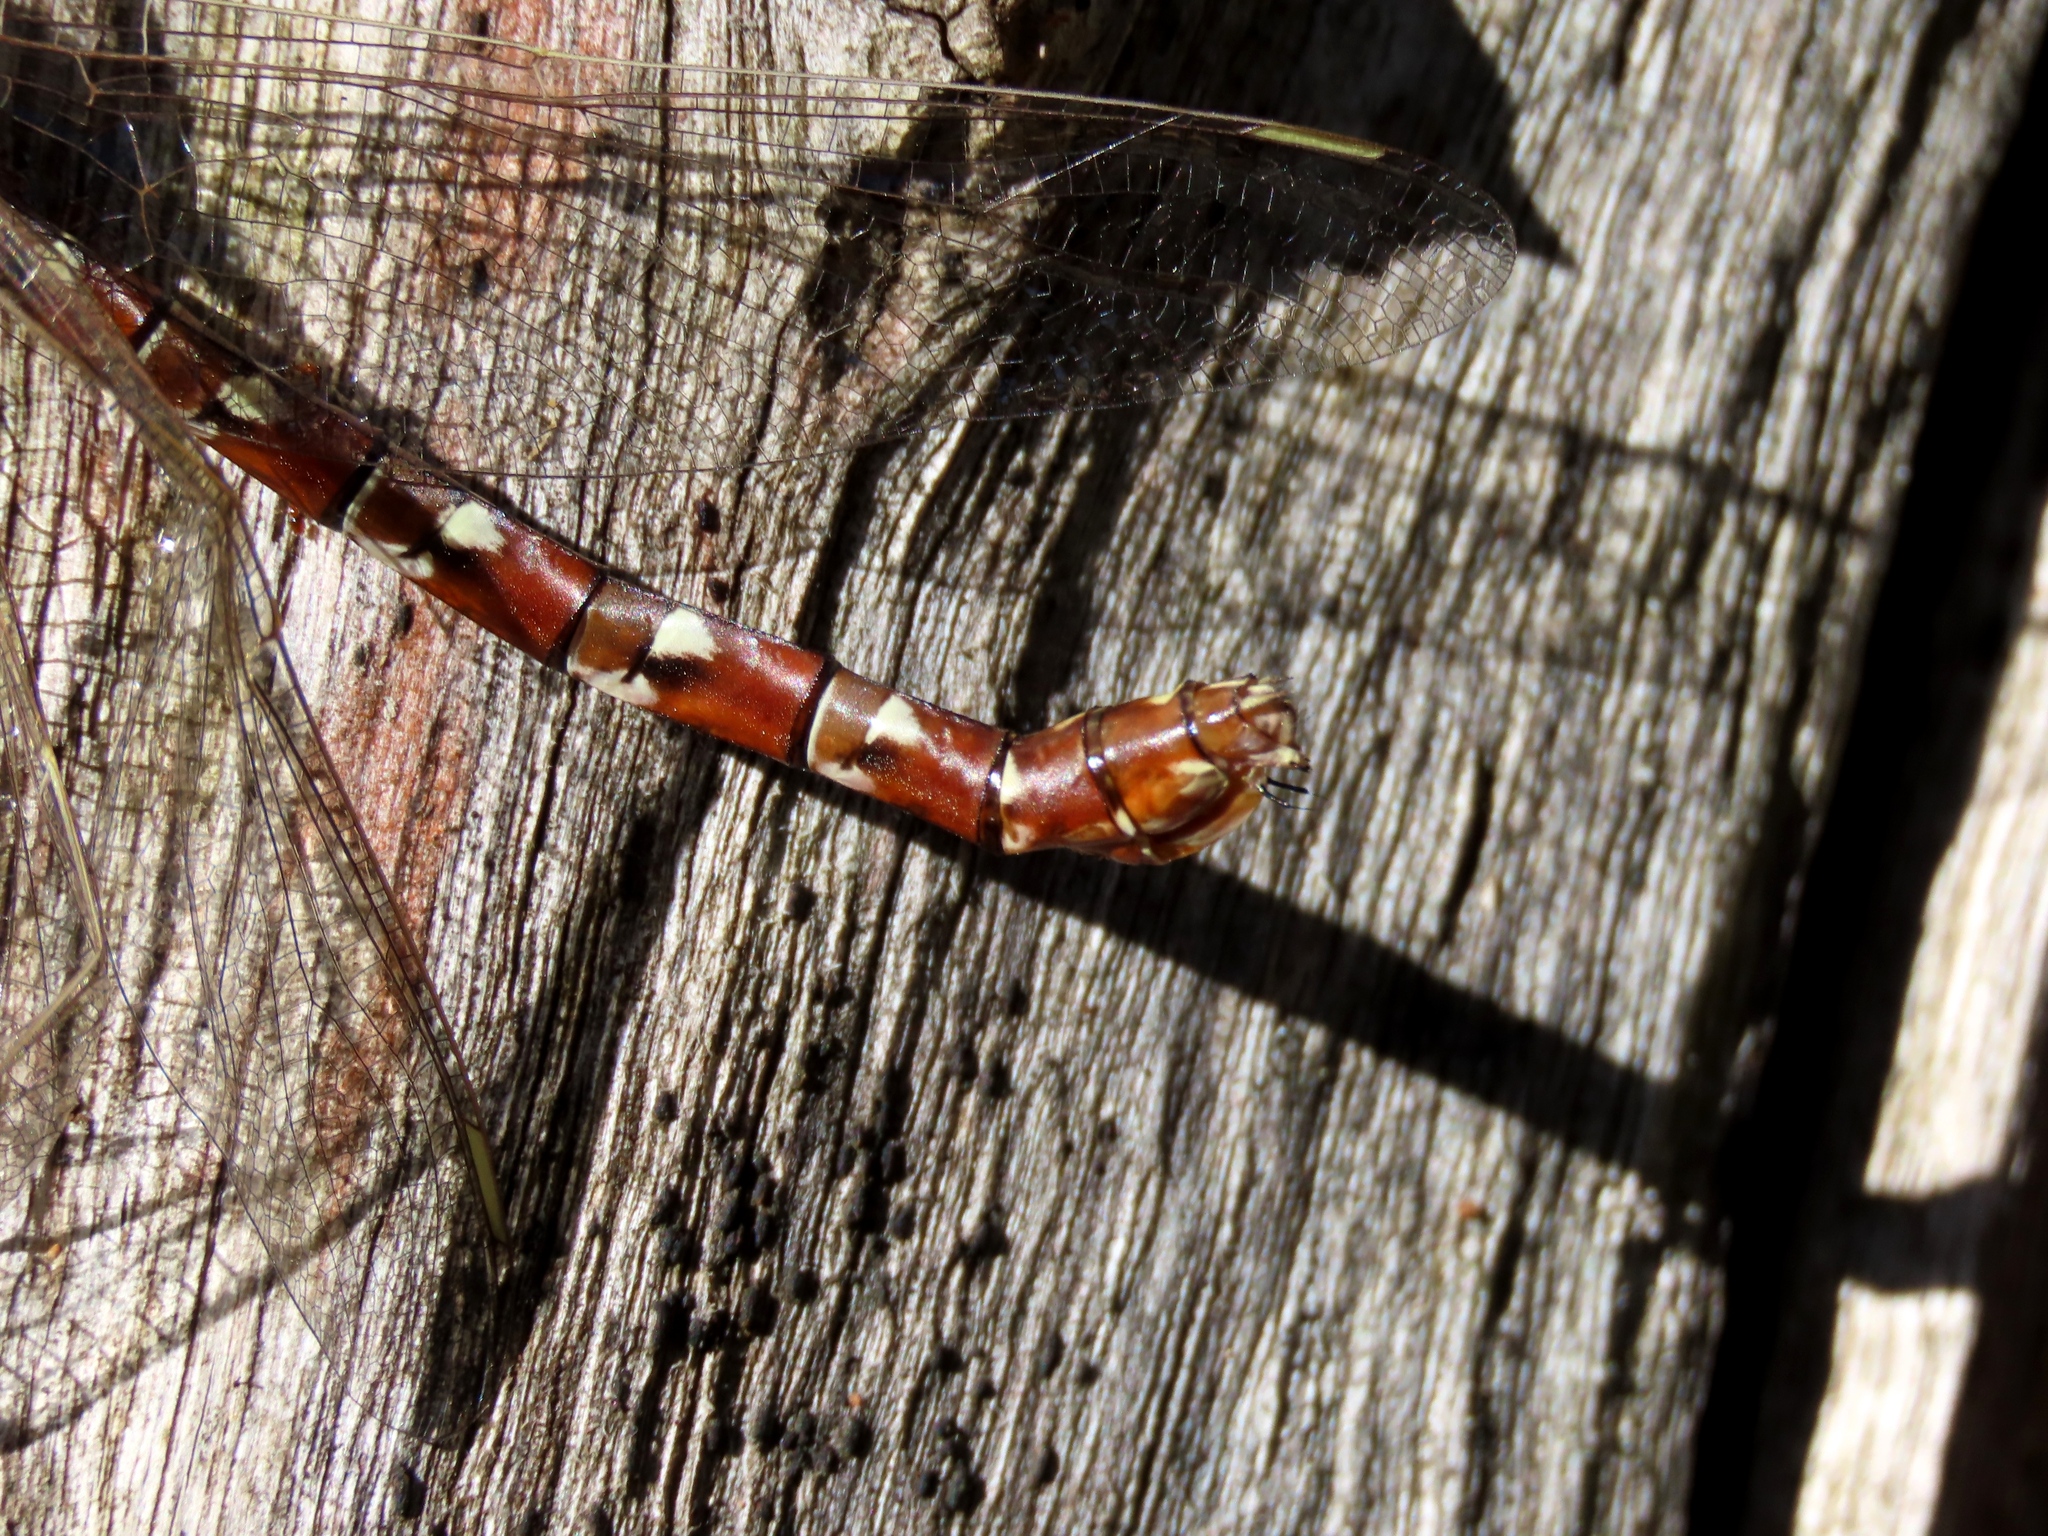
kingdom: Animalia
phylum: Arthropoda
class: Insecta
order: Odonata
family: Aeshnidae
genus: Austroaeschna
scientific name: Austroaeschna unicornis
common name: Unicorn darner
